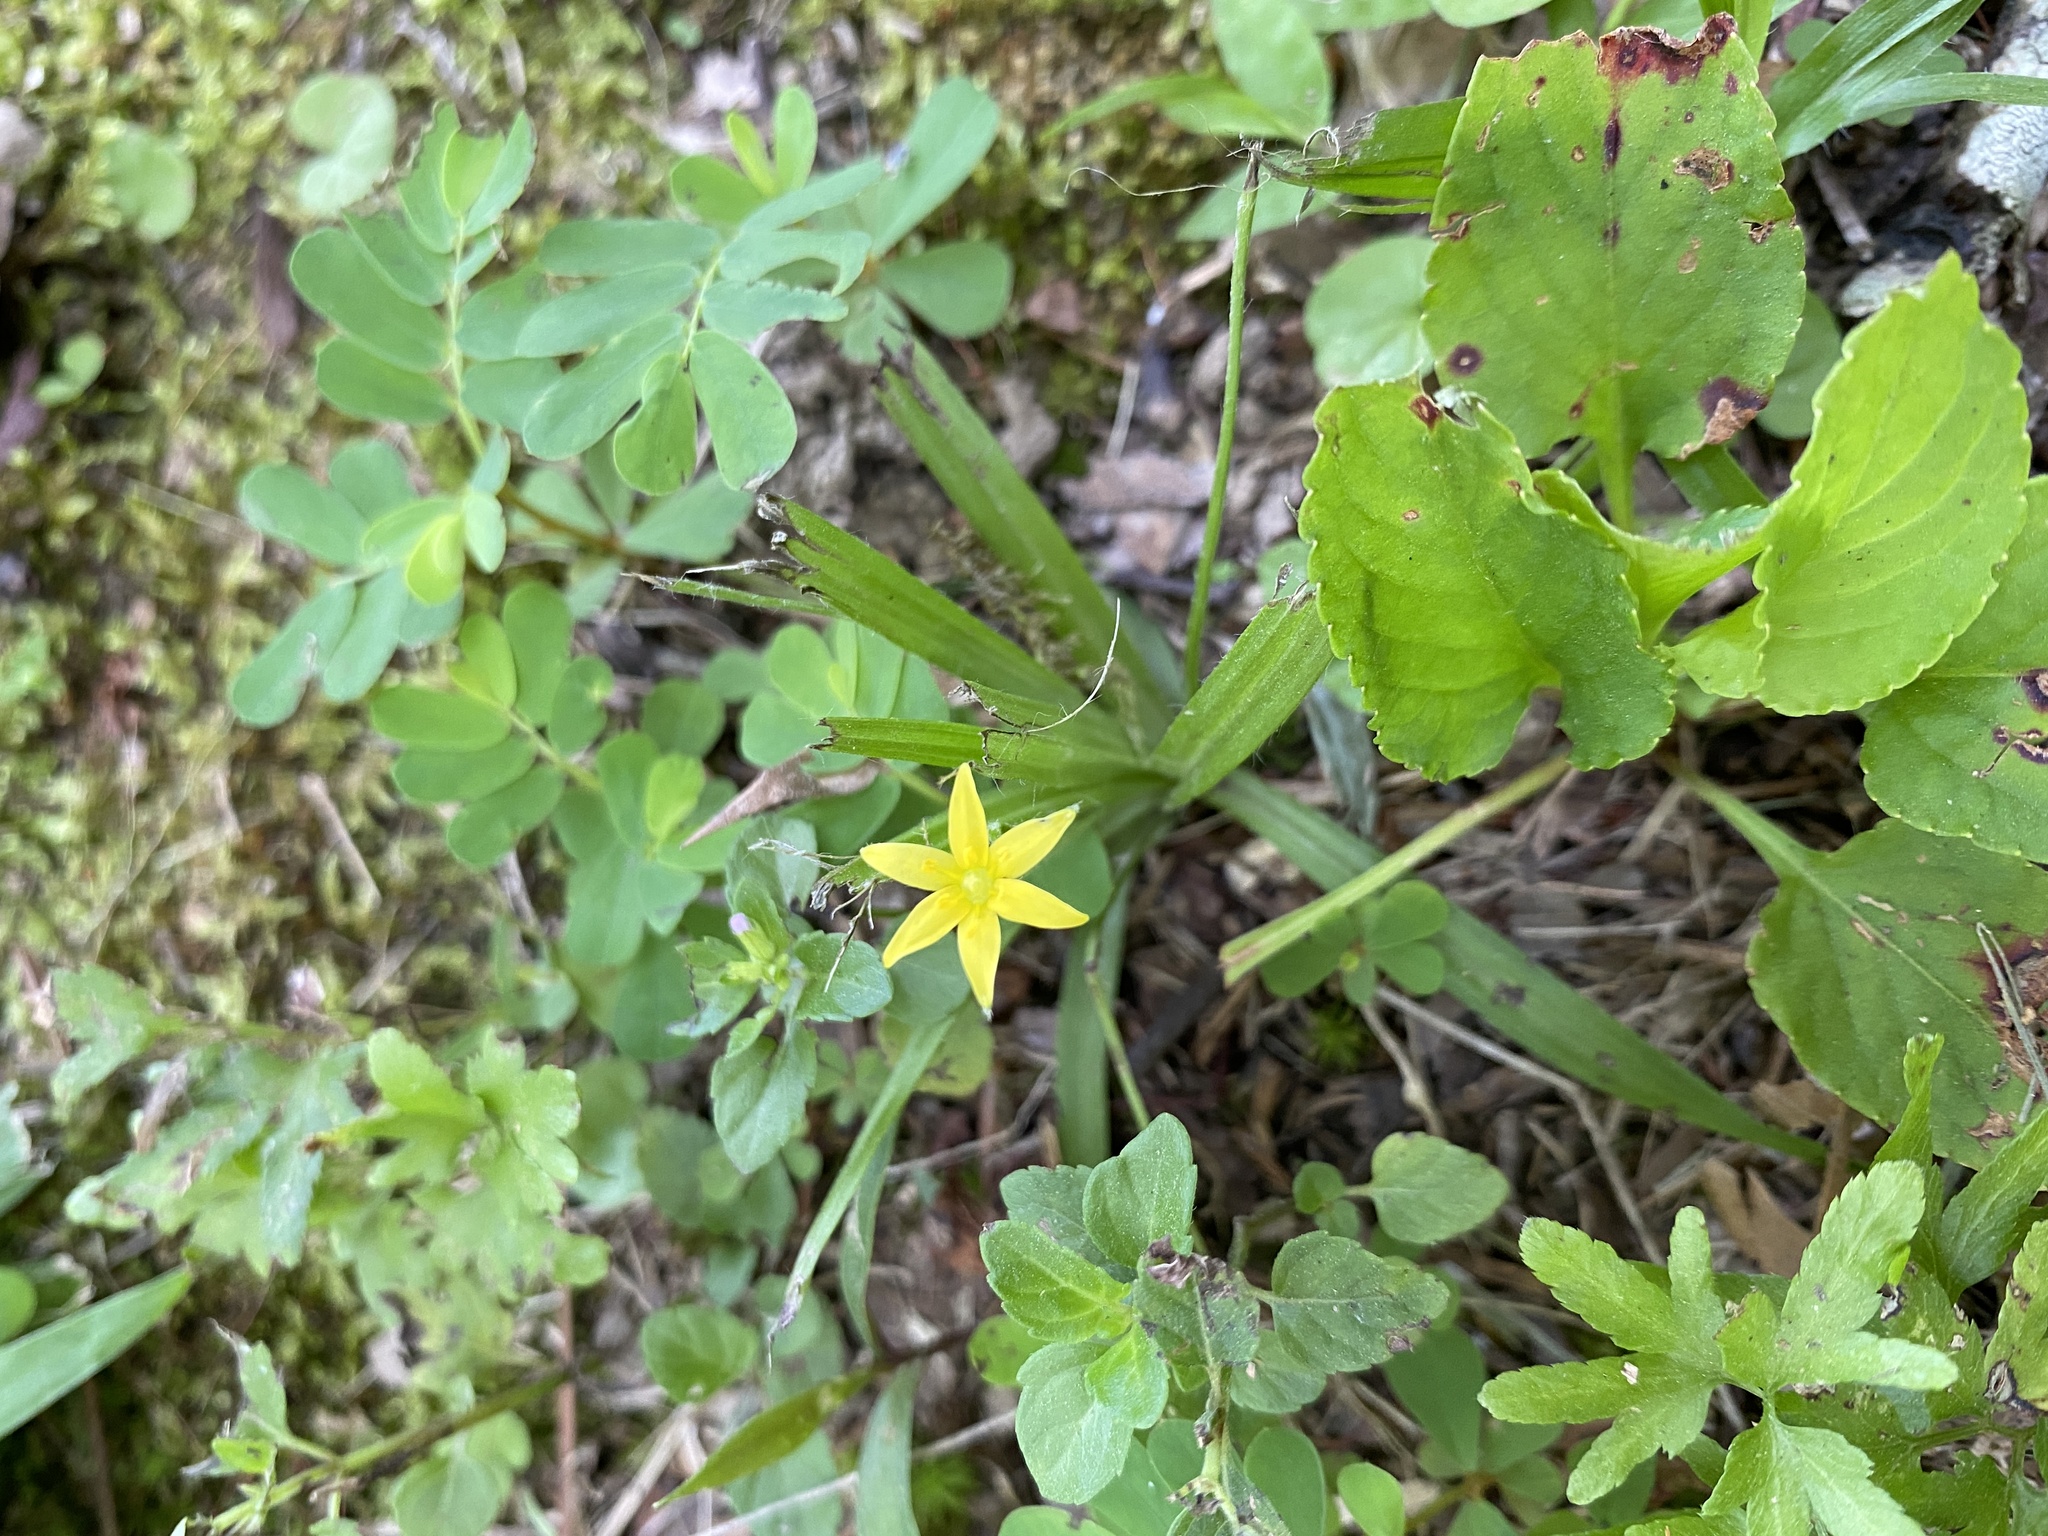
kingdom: Plantae
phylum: Tracheophyta
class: Liliopsida
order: Asparagales
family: Hypoxidaceae
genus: Hypoxis
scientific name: Hypoxis hirsuta
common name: Common goldstar
